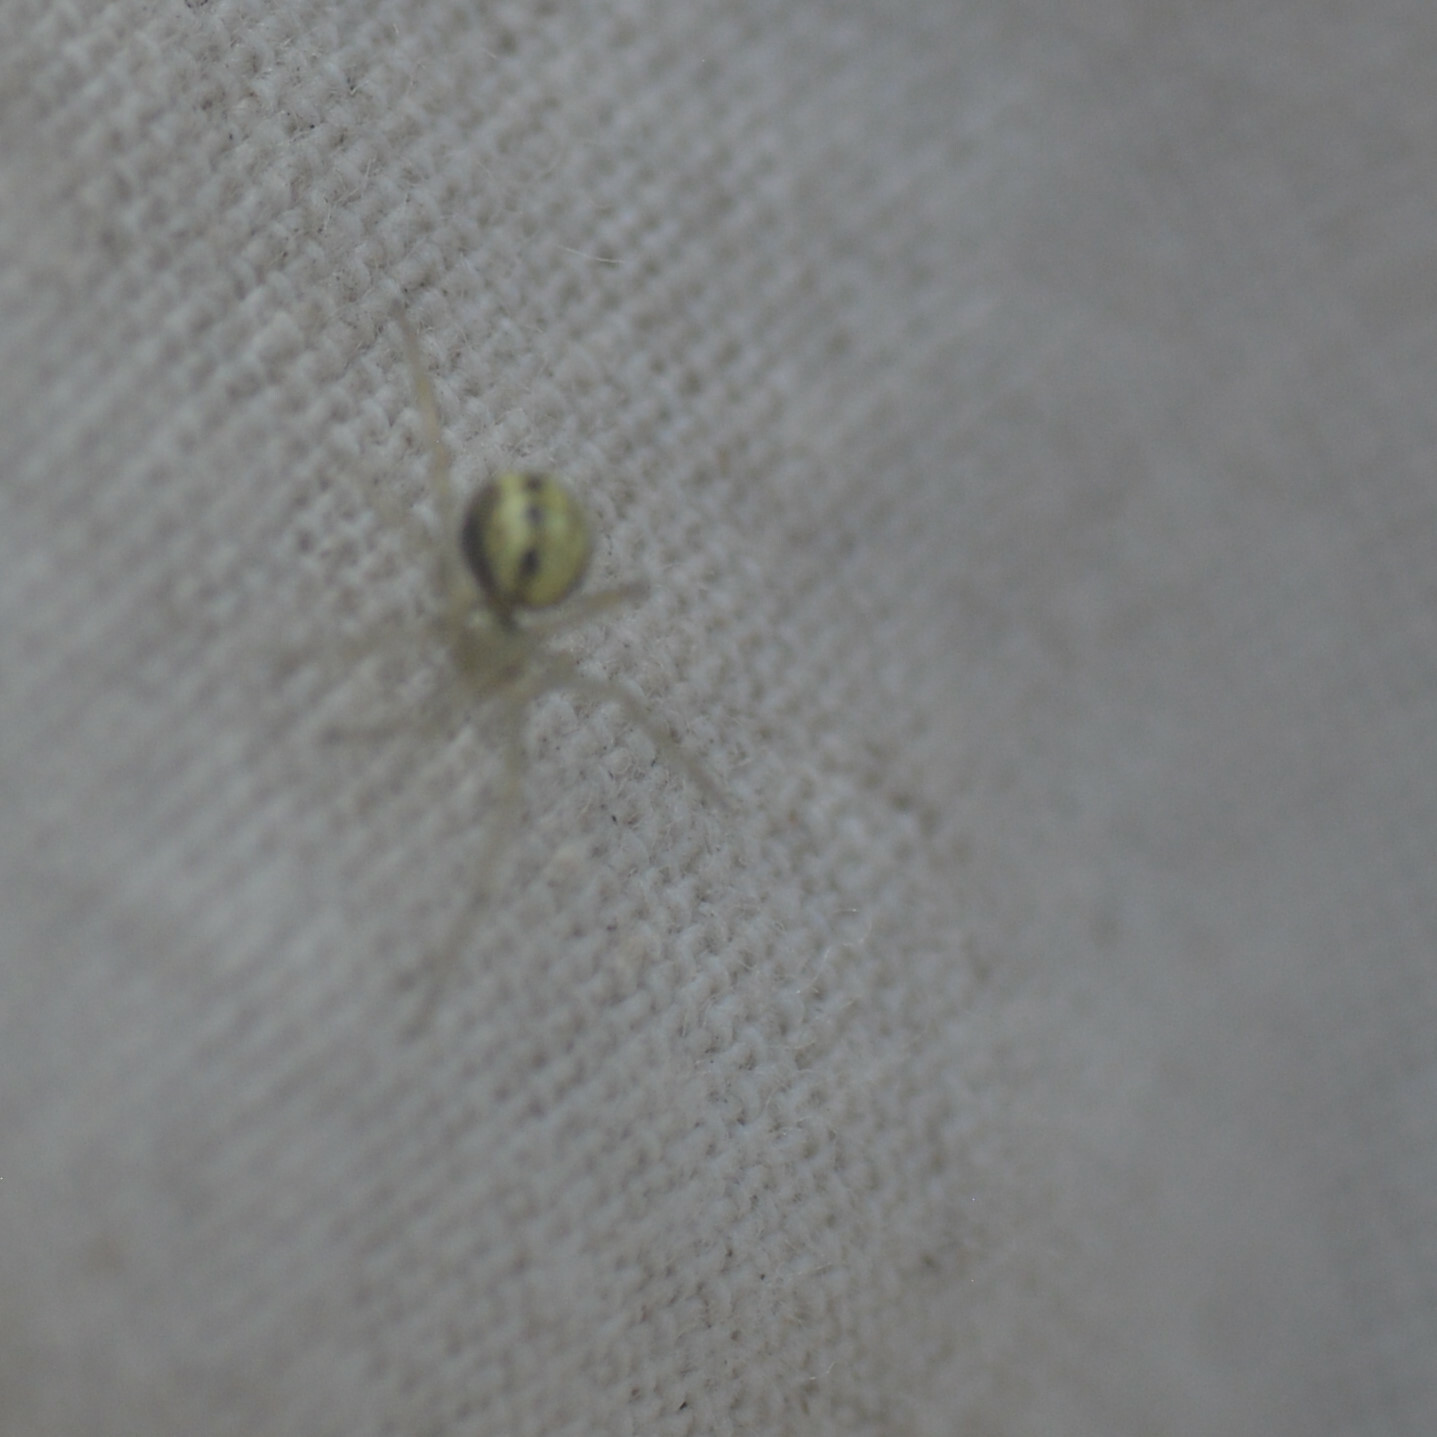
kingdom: Animalia
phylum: Arthropoda
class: Arachnida
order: Araneae
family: Theridiidae
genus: Enoplognatha
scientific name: Enoplognatha
